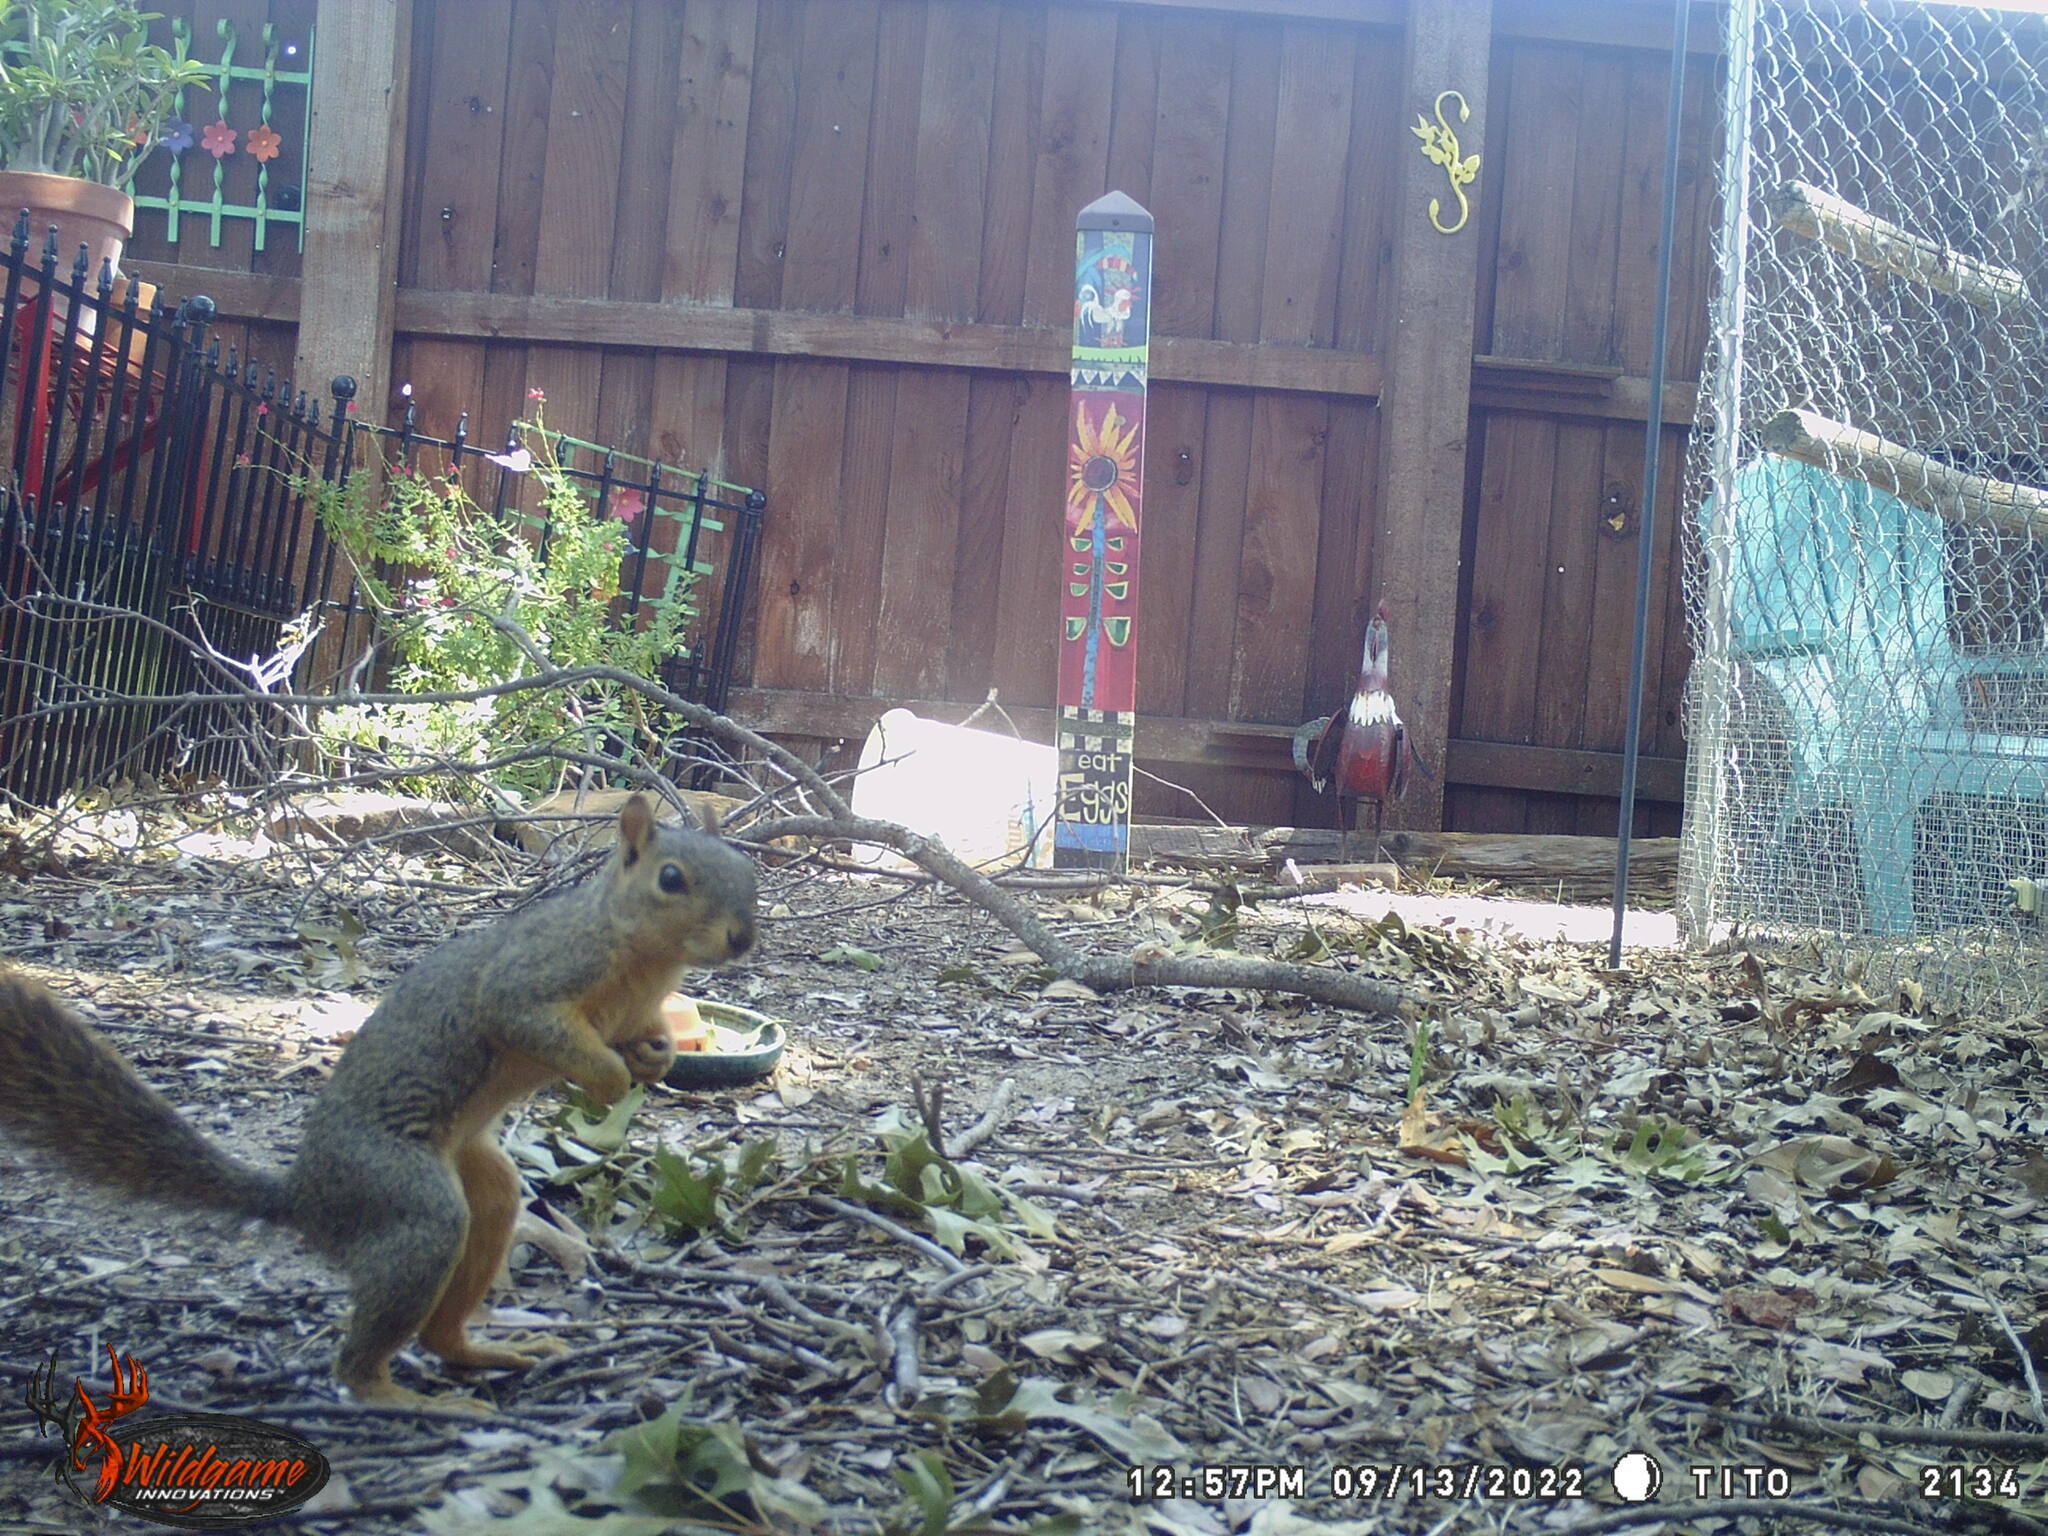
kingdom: Animalia
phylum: Chordata
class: Mammalia
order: Rodentia
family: Sciuridae
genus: Sciurus
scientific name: Sciurus niger
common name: Fox squirrel
